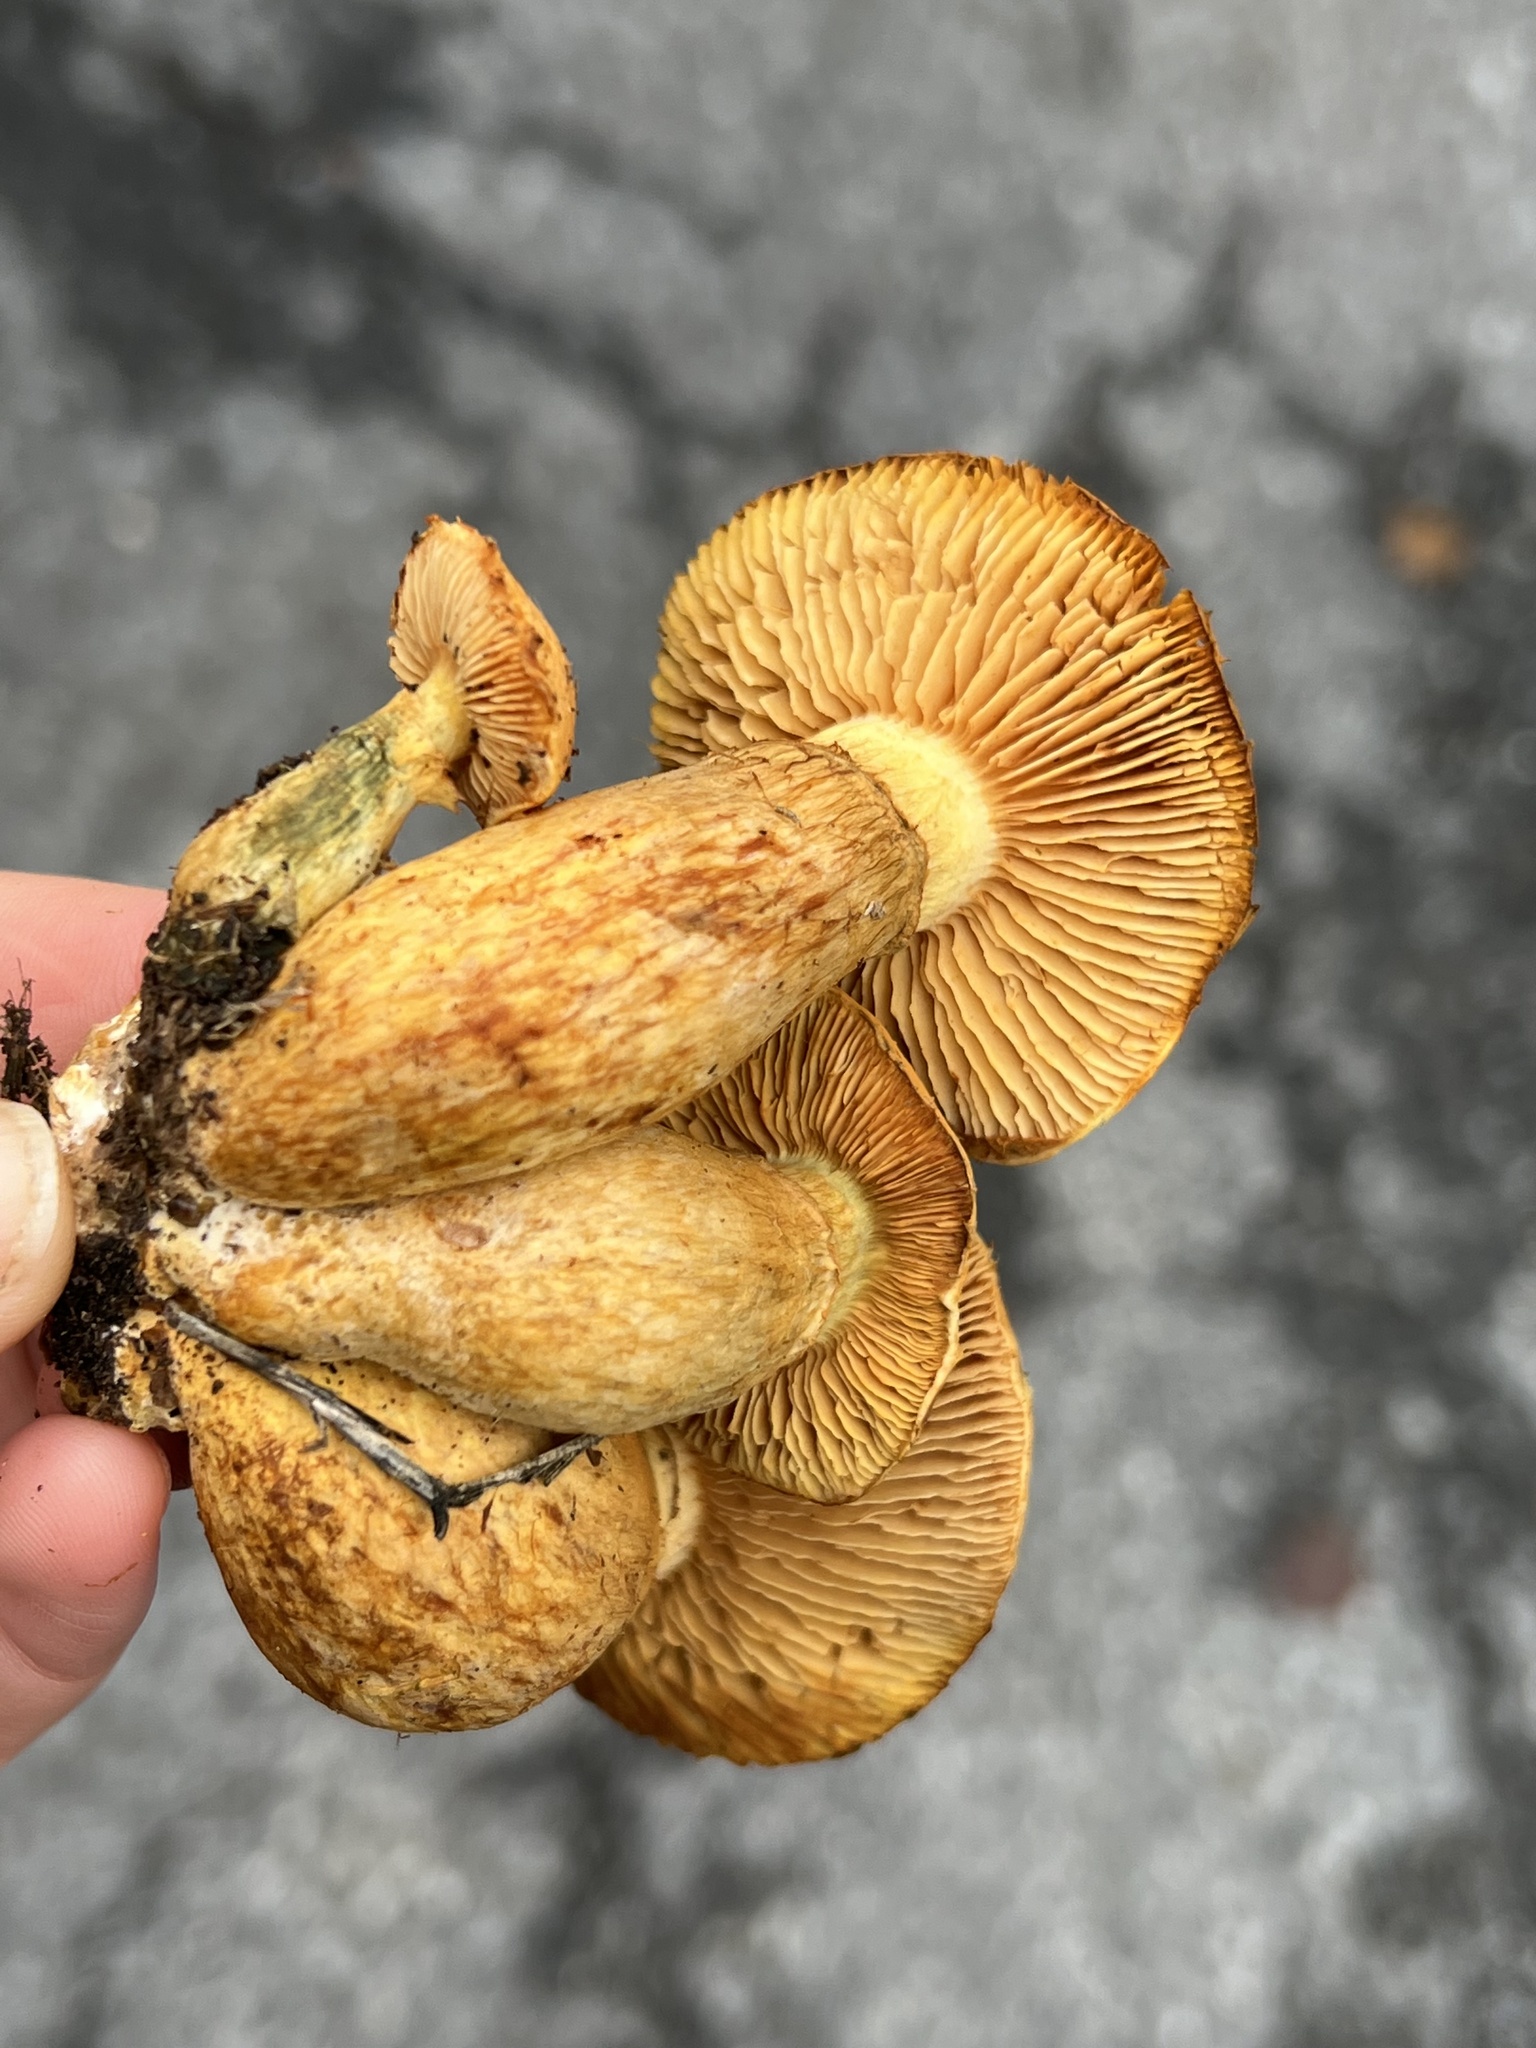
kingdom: Fungi
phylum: Basidiomycota
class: Agaricomycetes
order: Agaricales
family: Hymenogastraceae
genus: Gymnopilus
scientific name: Gymnopilus subspectabilis
